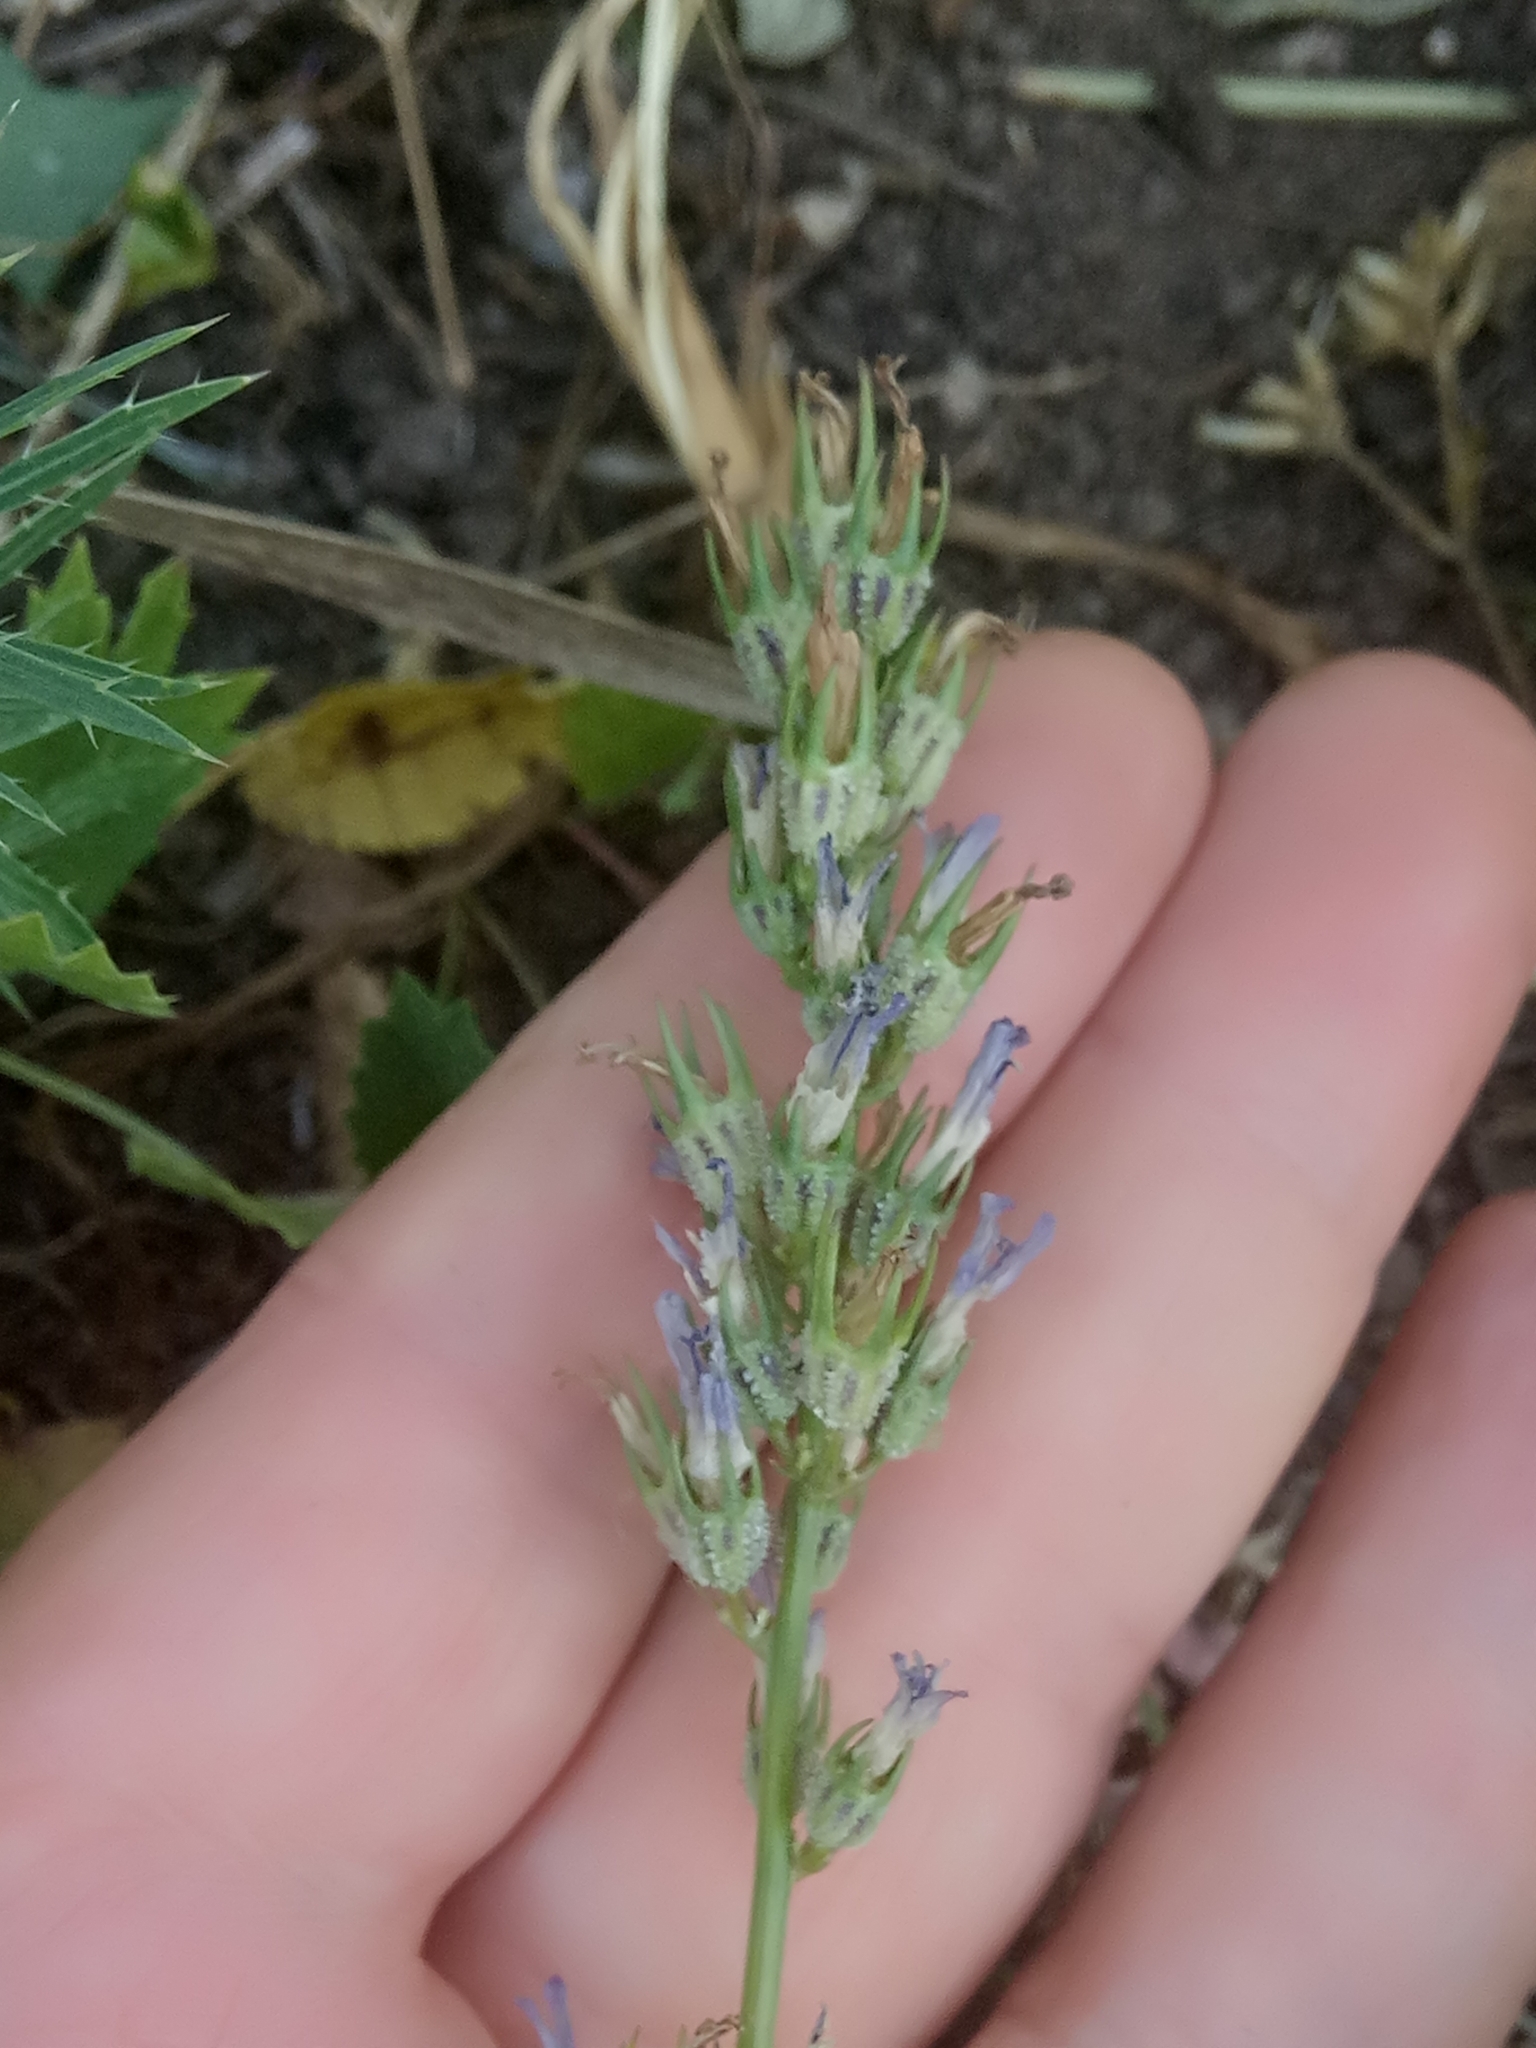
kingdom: Plantae
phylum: Tracheophyta
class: Magnoliopsida
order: Asterales
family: Campanulaceae
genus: Campanula
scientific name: Campanula rapunculus
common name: Rampion bellflower
